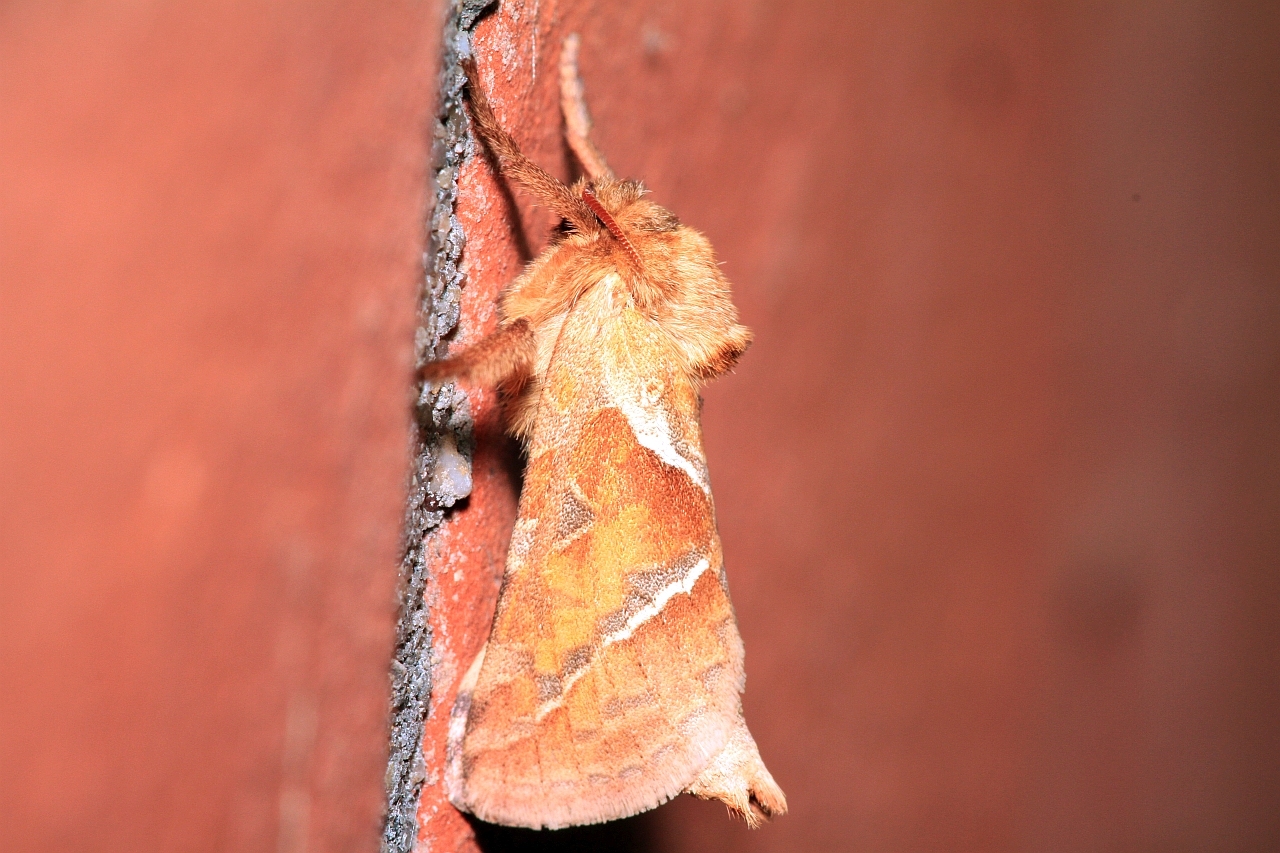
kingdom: Animalia
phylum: Arthropoda
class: Insecta
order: Lepidoptera
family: Hepialidae
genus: Triodia
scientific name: Triodia sylvina
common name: Orange swift
